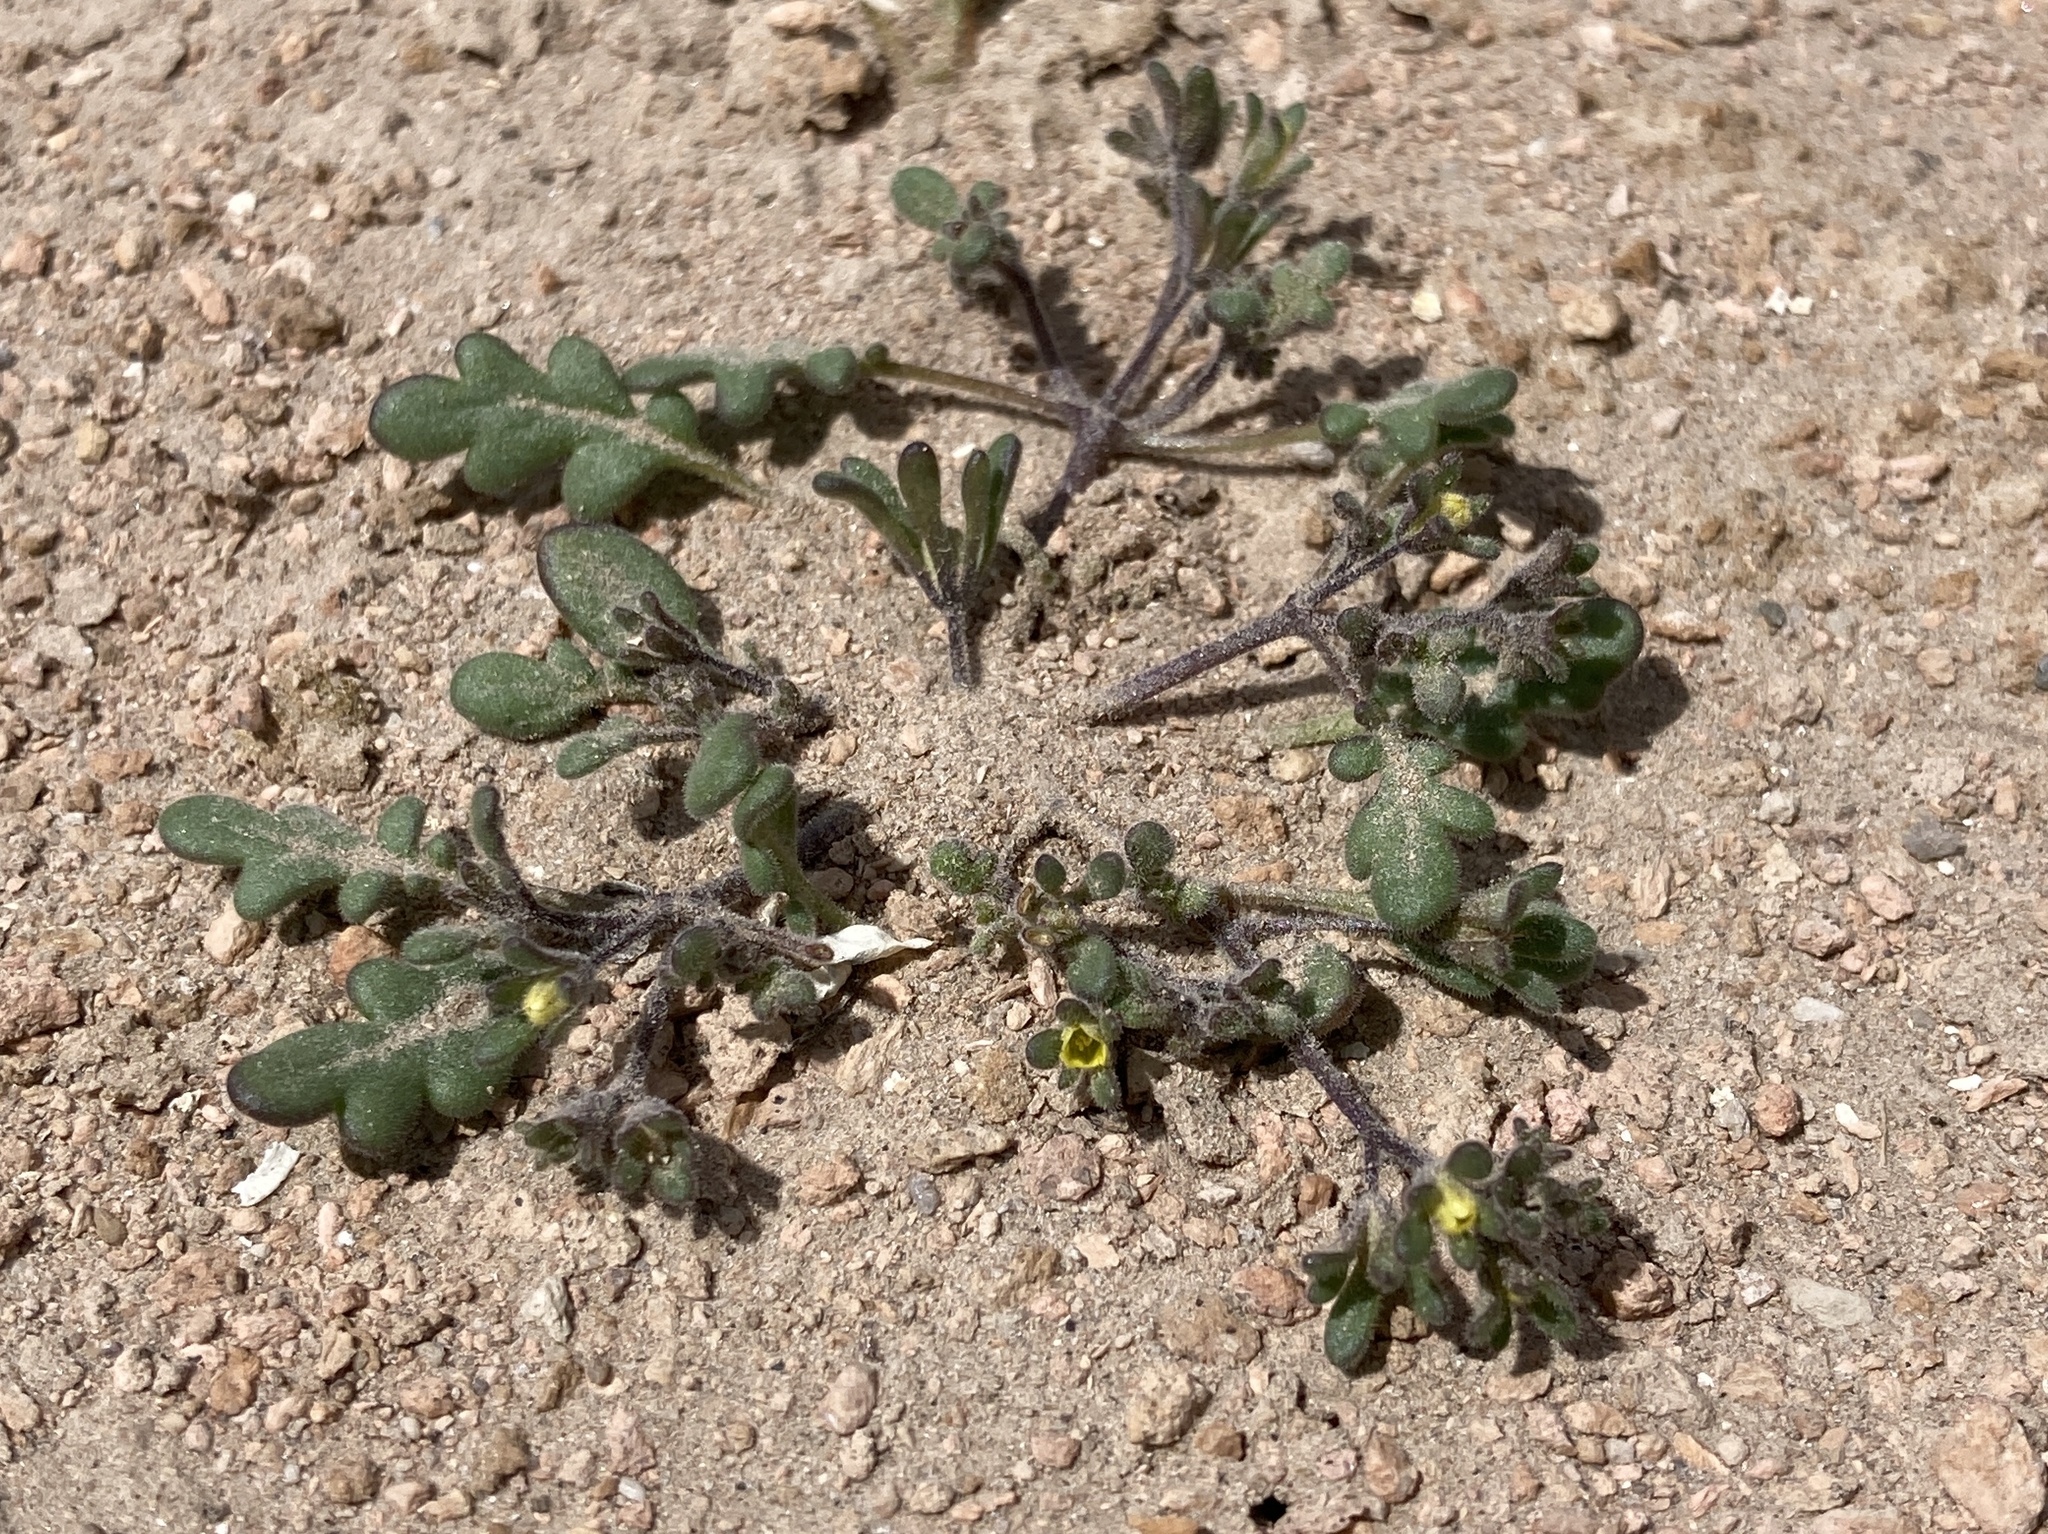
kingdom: Plantae
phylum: Tracheophyta
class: Magnoliopsida
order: Boraginales
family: Hydrophyllaceae
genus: Phacelia
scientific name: Phacelia inyoensis
